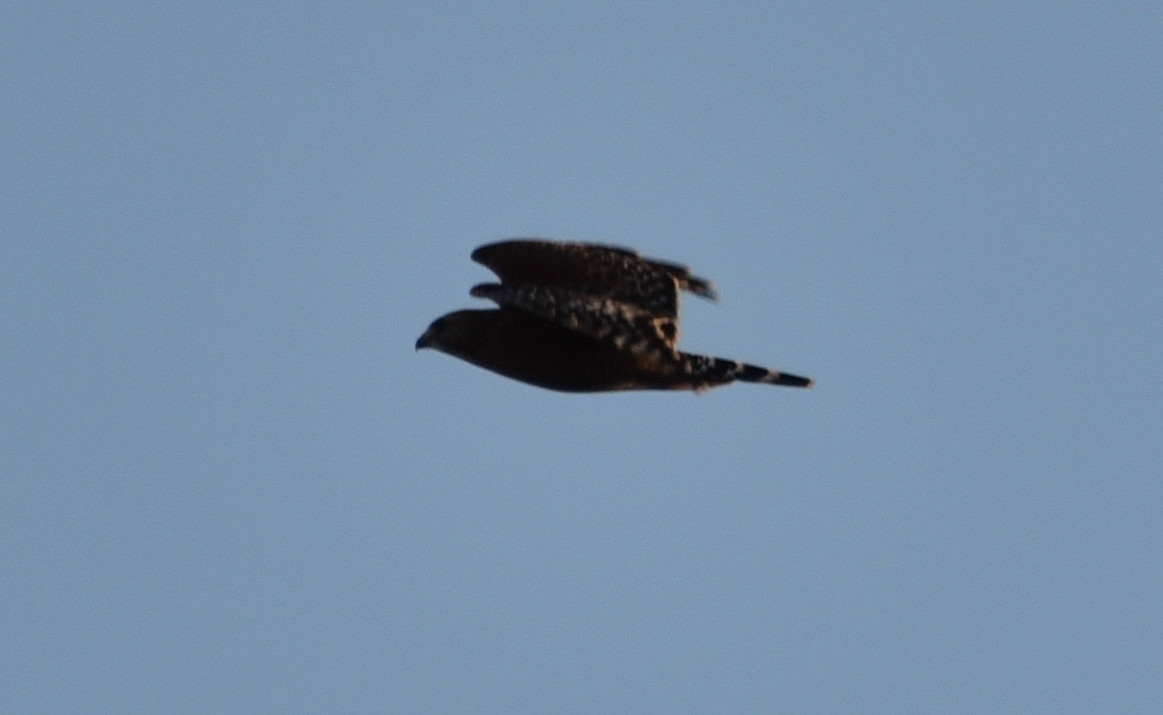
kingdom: Animalia
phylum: Chordata
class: Aves
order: Accipitriformes
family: Accipitridae
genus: Buteo
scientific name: Buteo lineatus
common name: Red-shouldered hawk
